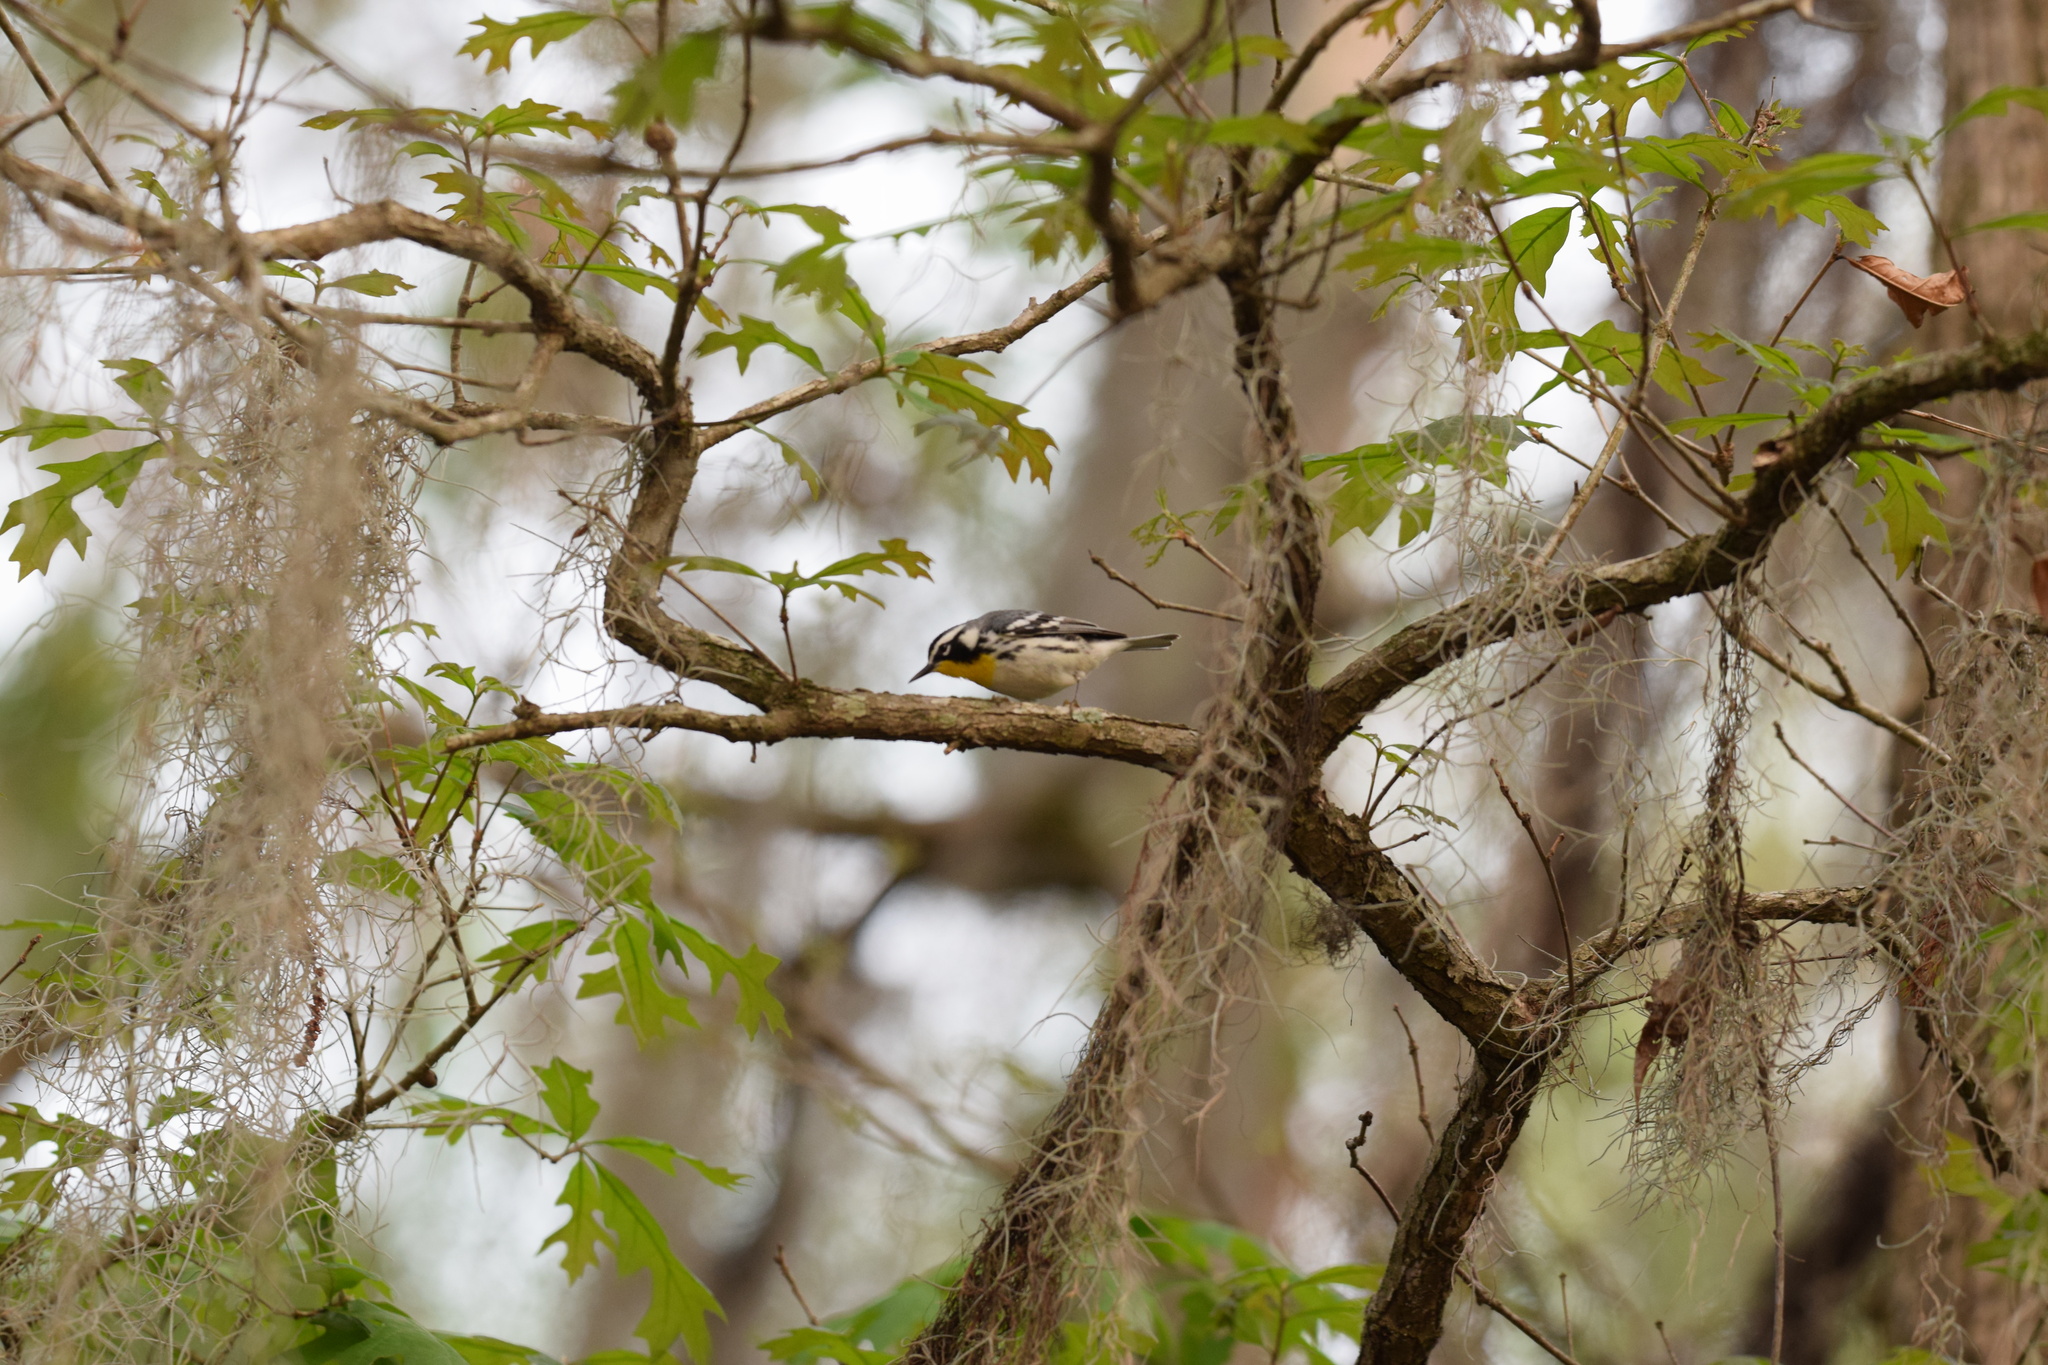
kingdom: Animalia
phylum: Chordata
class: Aves
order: Passeriformes
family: Parulidae
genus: Setophaga
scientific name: Setophaga dominica
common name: Yellow-throated warbler
